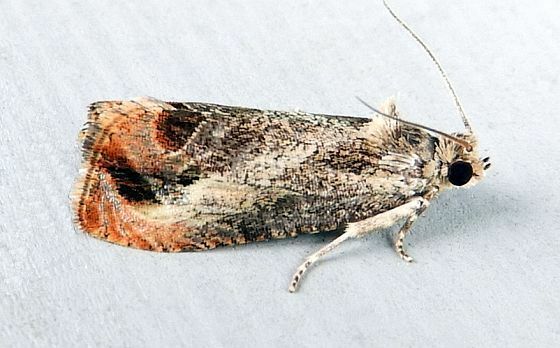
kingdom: Animalia
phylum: Arthropoda
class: Insecta
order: Lepidoptera
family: Tortricidae
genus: Olethreutes
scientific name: Olethreutes hamameliana
